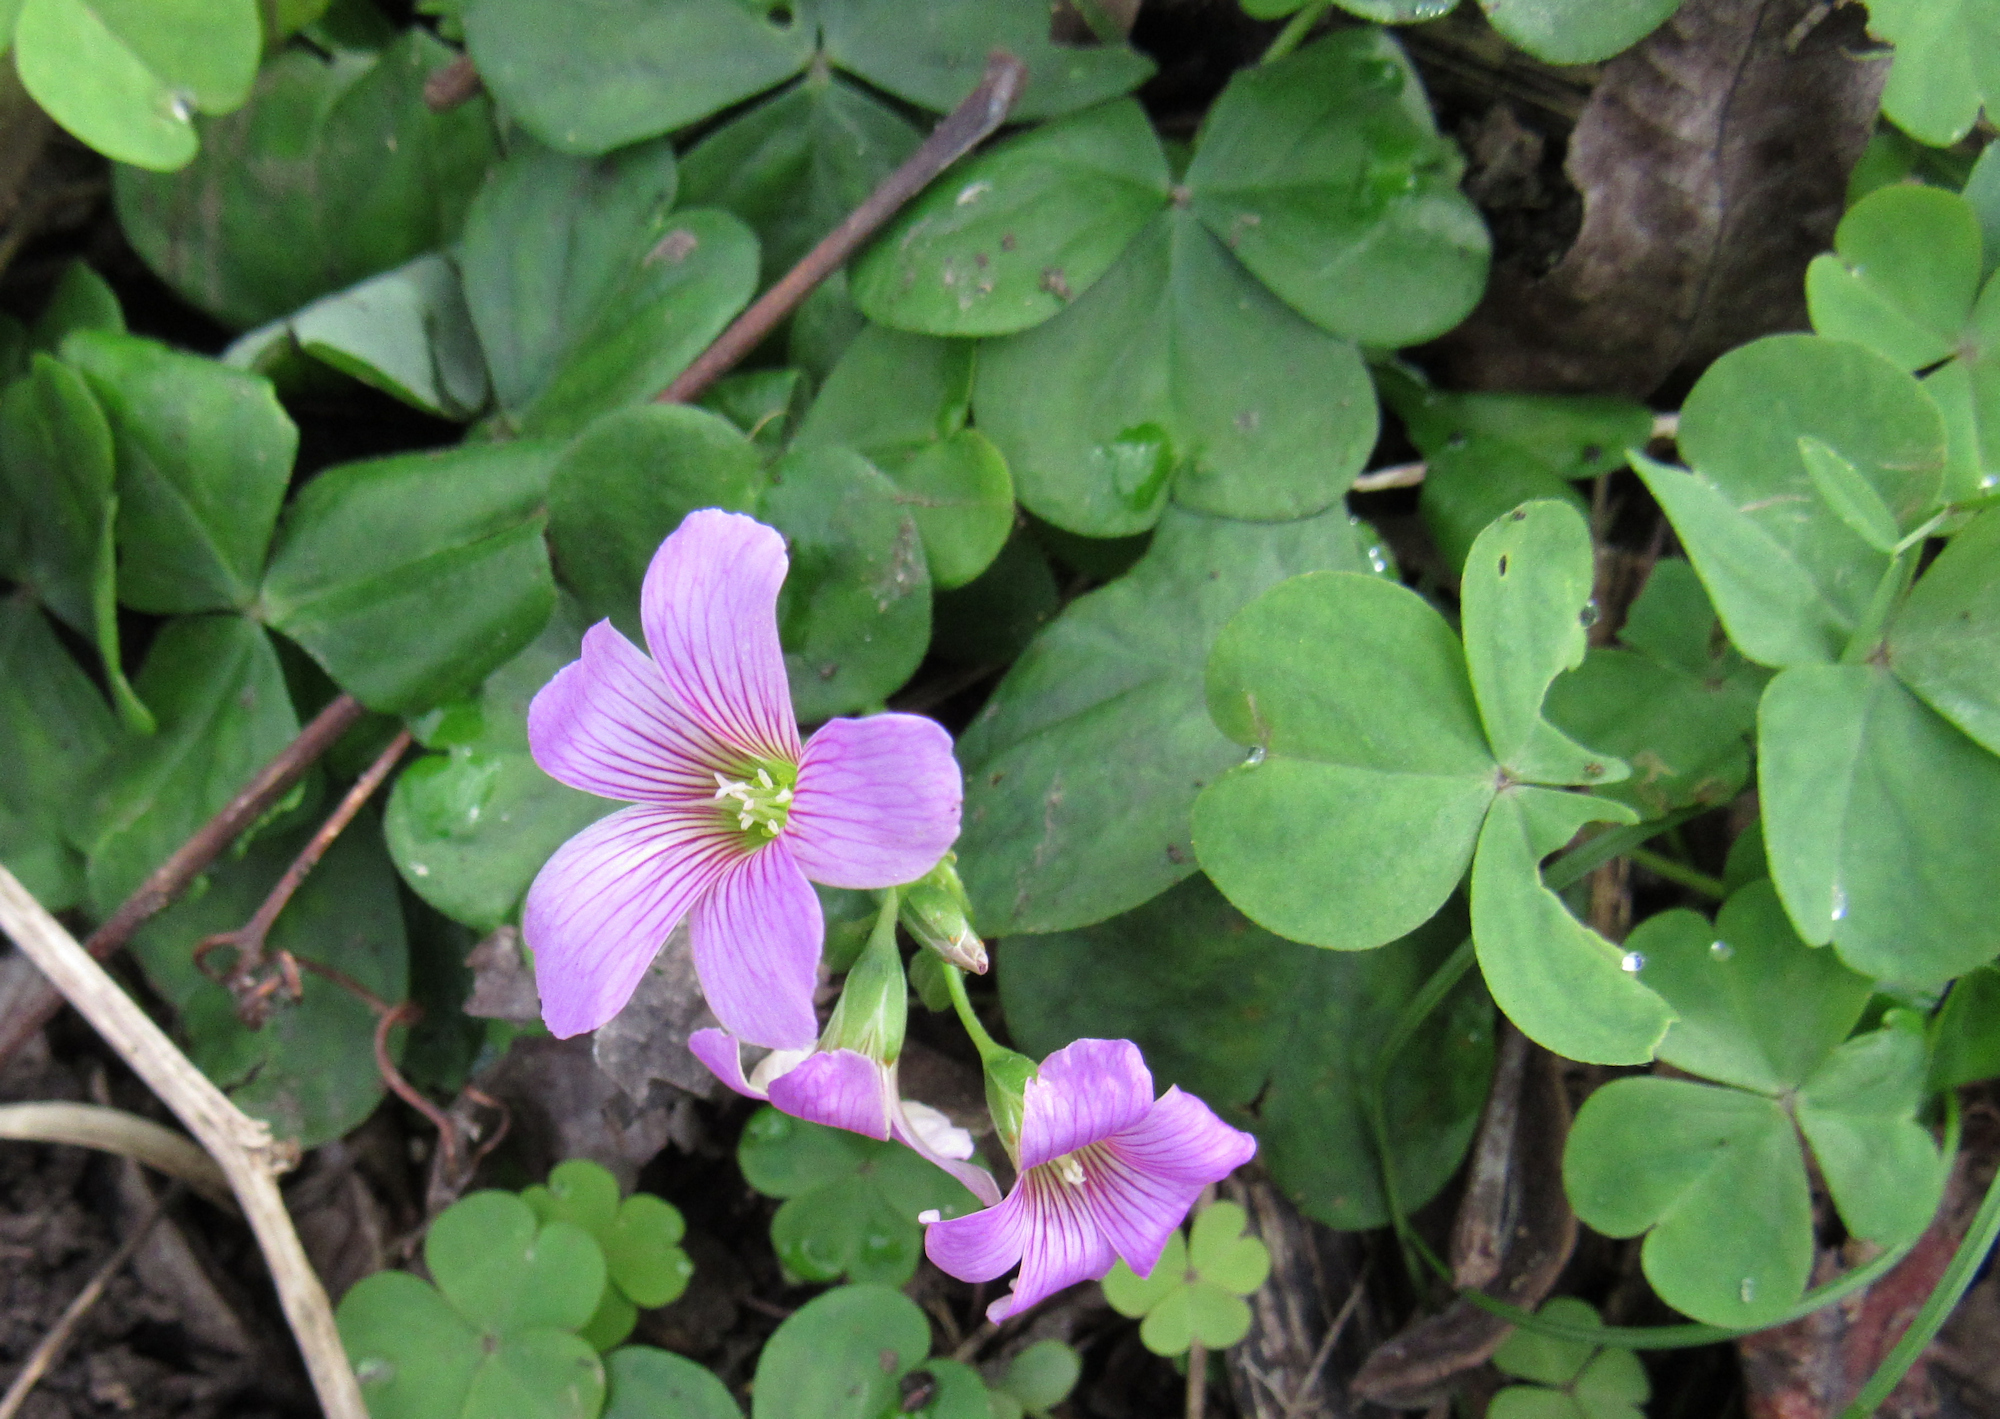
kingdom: Plantae
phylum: Tracheophyta
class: Magnoliopsida
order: Oxalidales
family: Oxalidaceae
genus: Oxalis
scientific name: Oxalis debilis
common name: Large-flowered pink-sorrel
